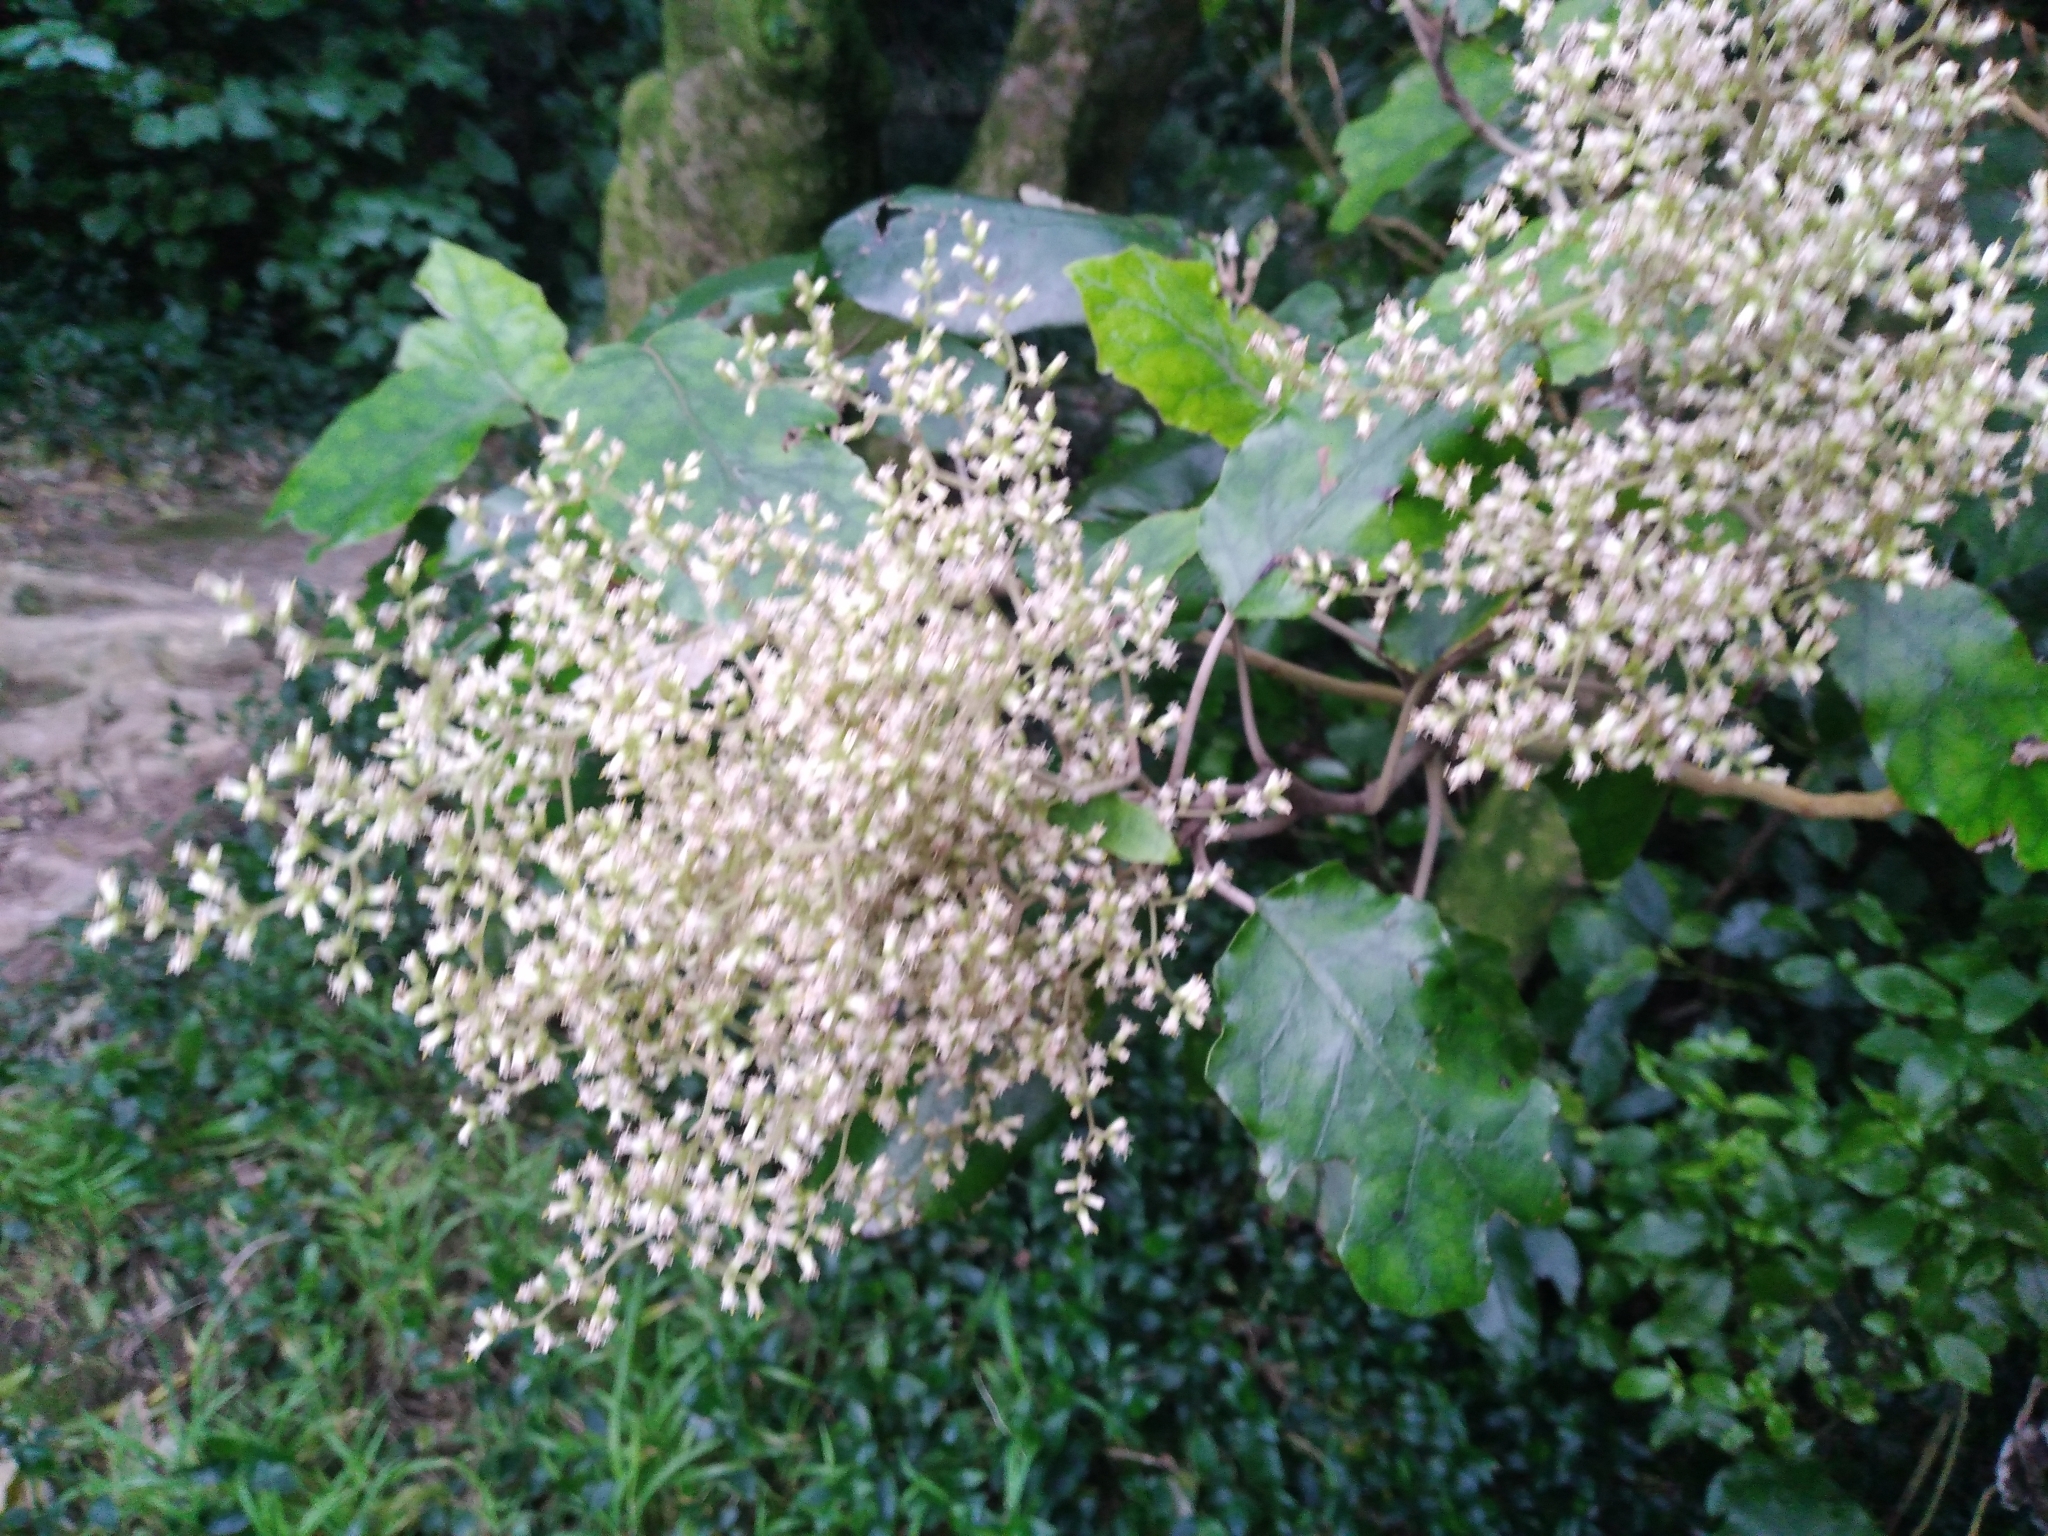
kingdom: Plantae
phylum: Tracheophyta
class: Magnoliopsida
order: Asterales
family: Asteraceae
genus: Brachyglottis
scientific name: Brachyglottis repanda
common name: Hedge ragwort
